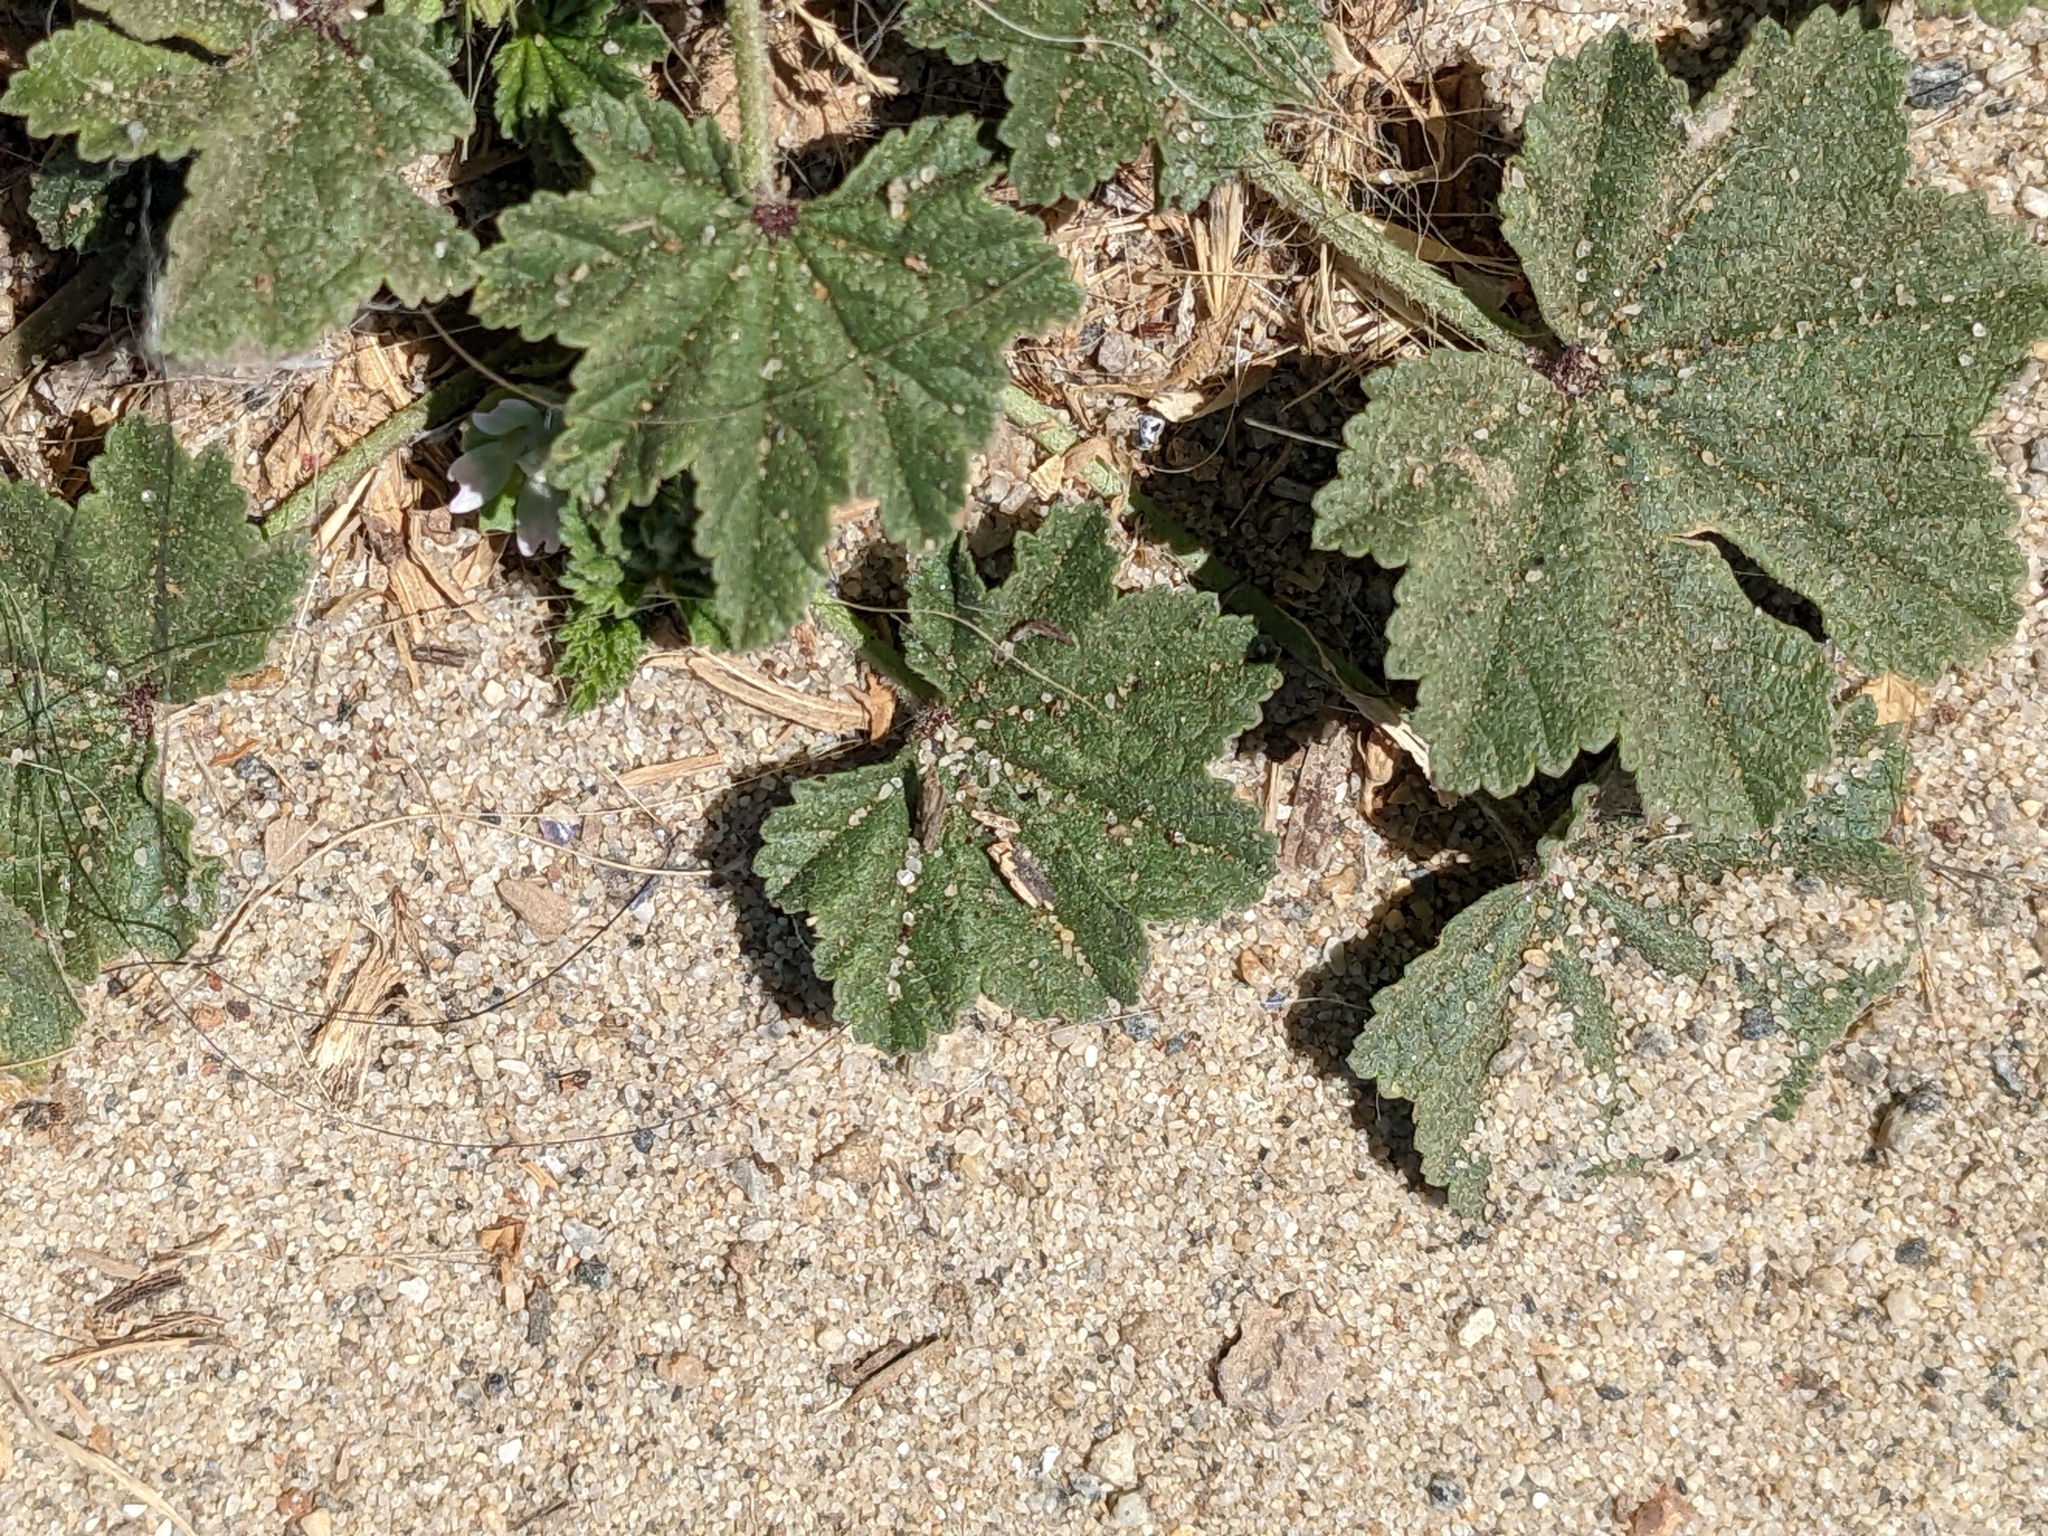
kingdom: Plantae
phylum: Tracheophyta
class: Magnoliopsida
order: Malvales
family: Malvaceae
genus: Malva
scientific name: Malva parviflora
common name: Least mallow
